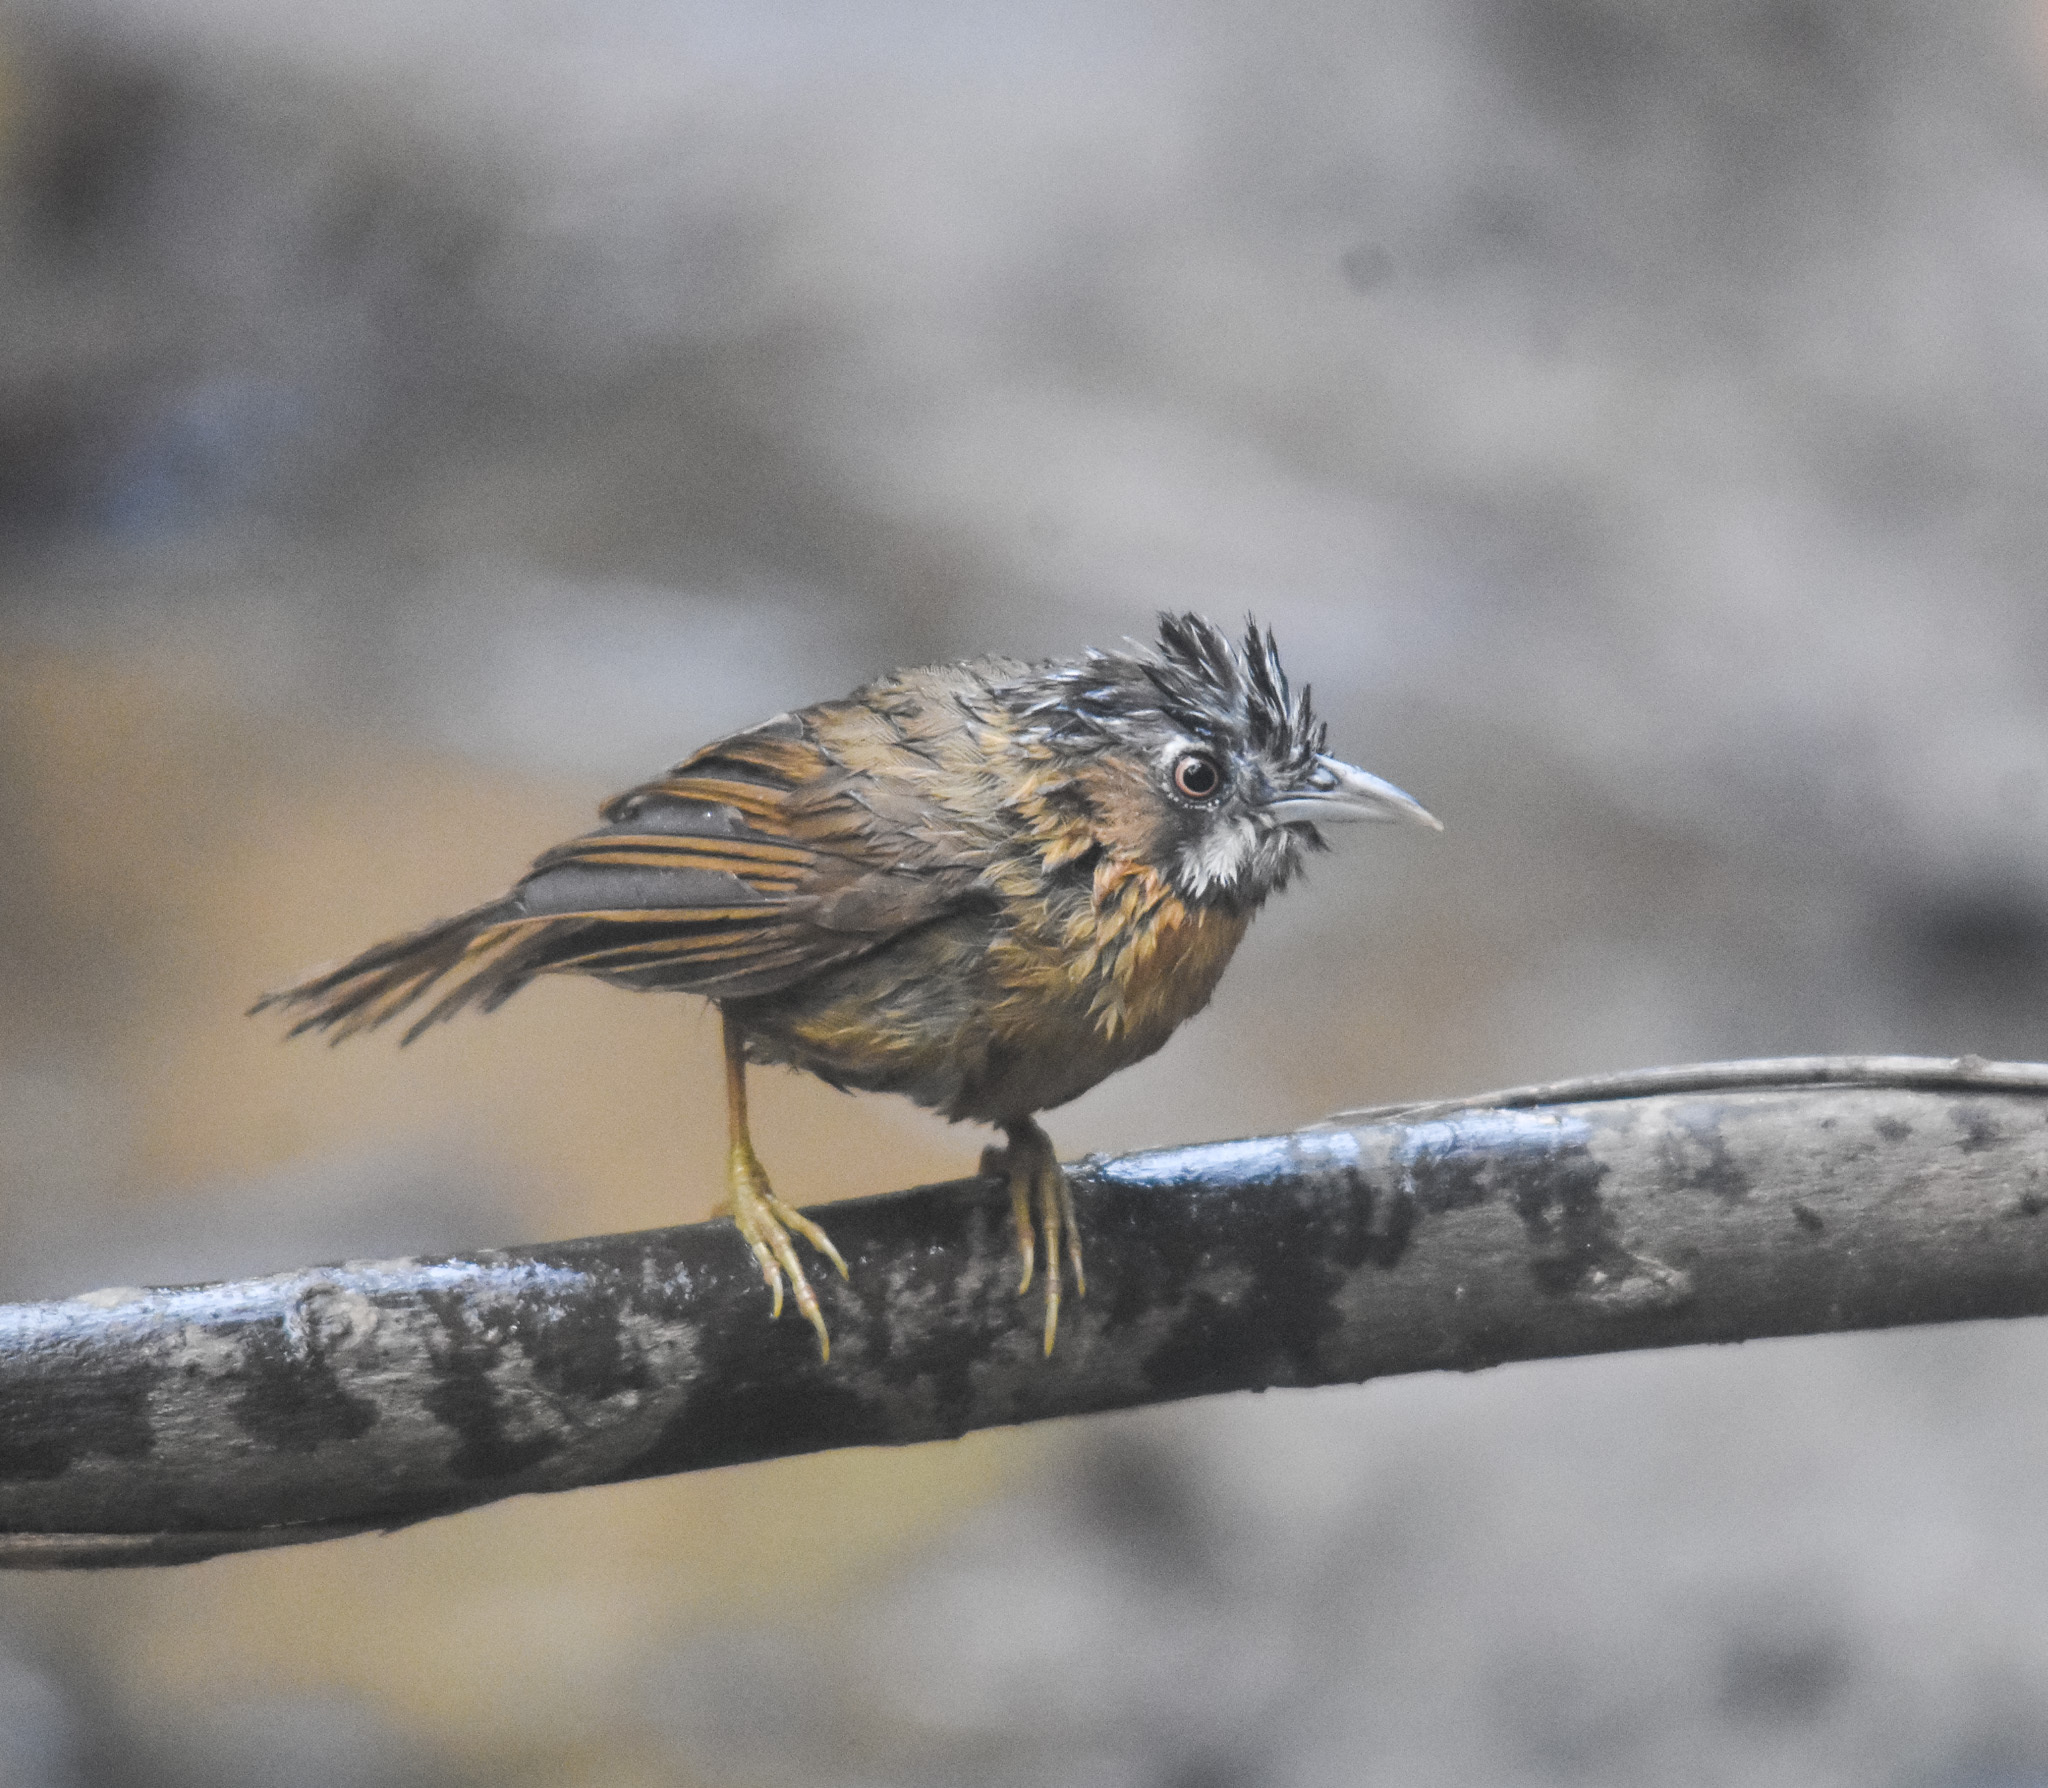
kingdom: Animalia
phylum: Chordata
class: Aves
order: Passeriformes
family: Timaliidae
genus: Stachyris
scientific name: Stachyris nigriceps
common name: Grey-throated babbler
